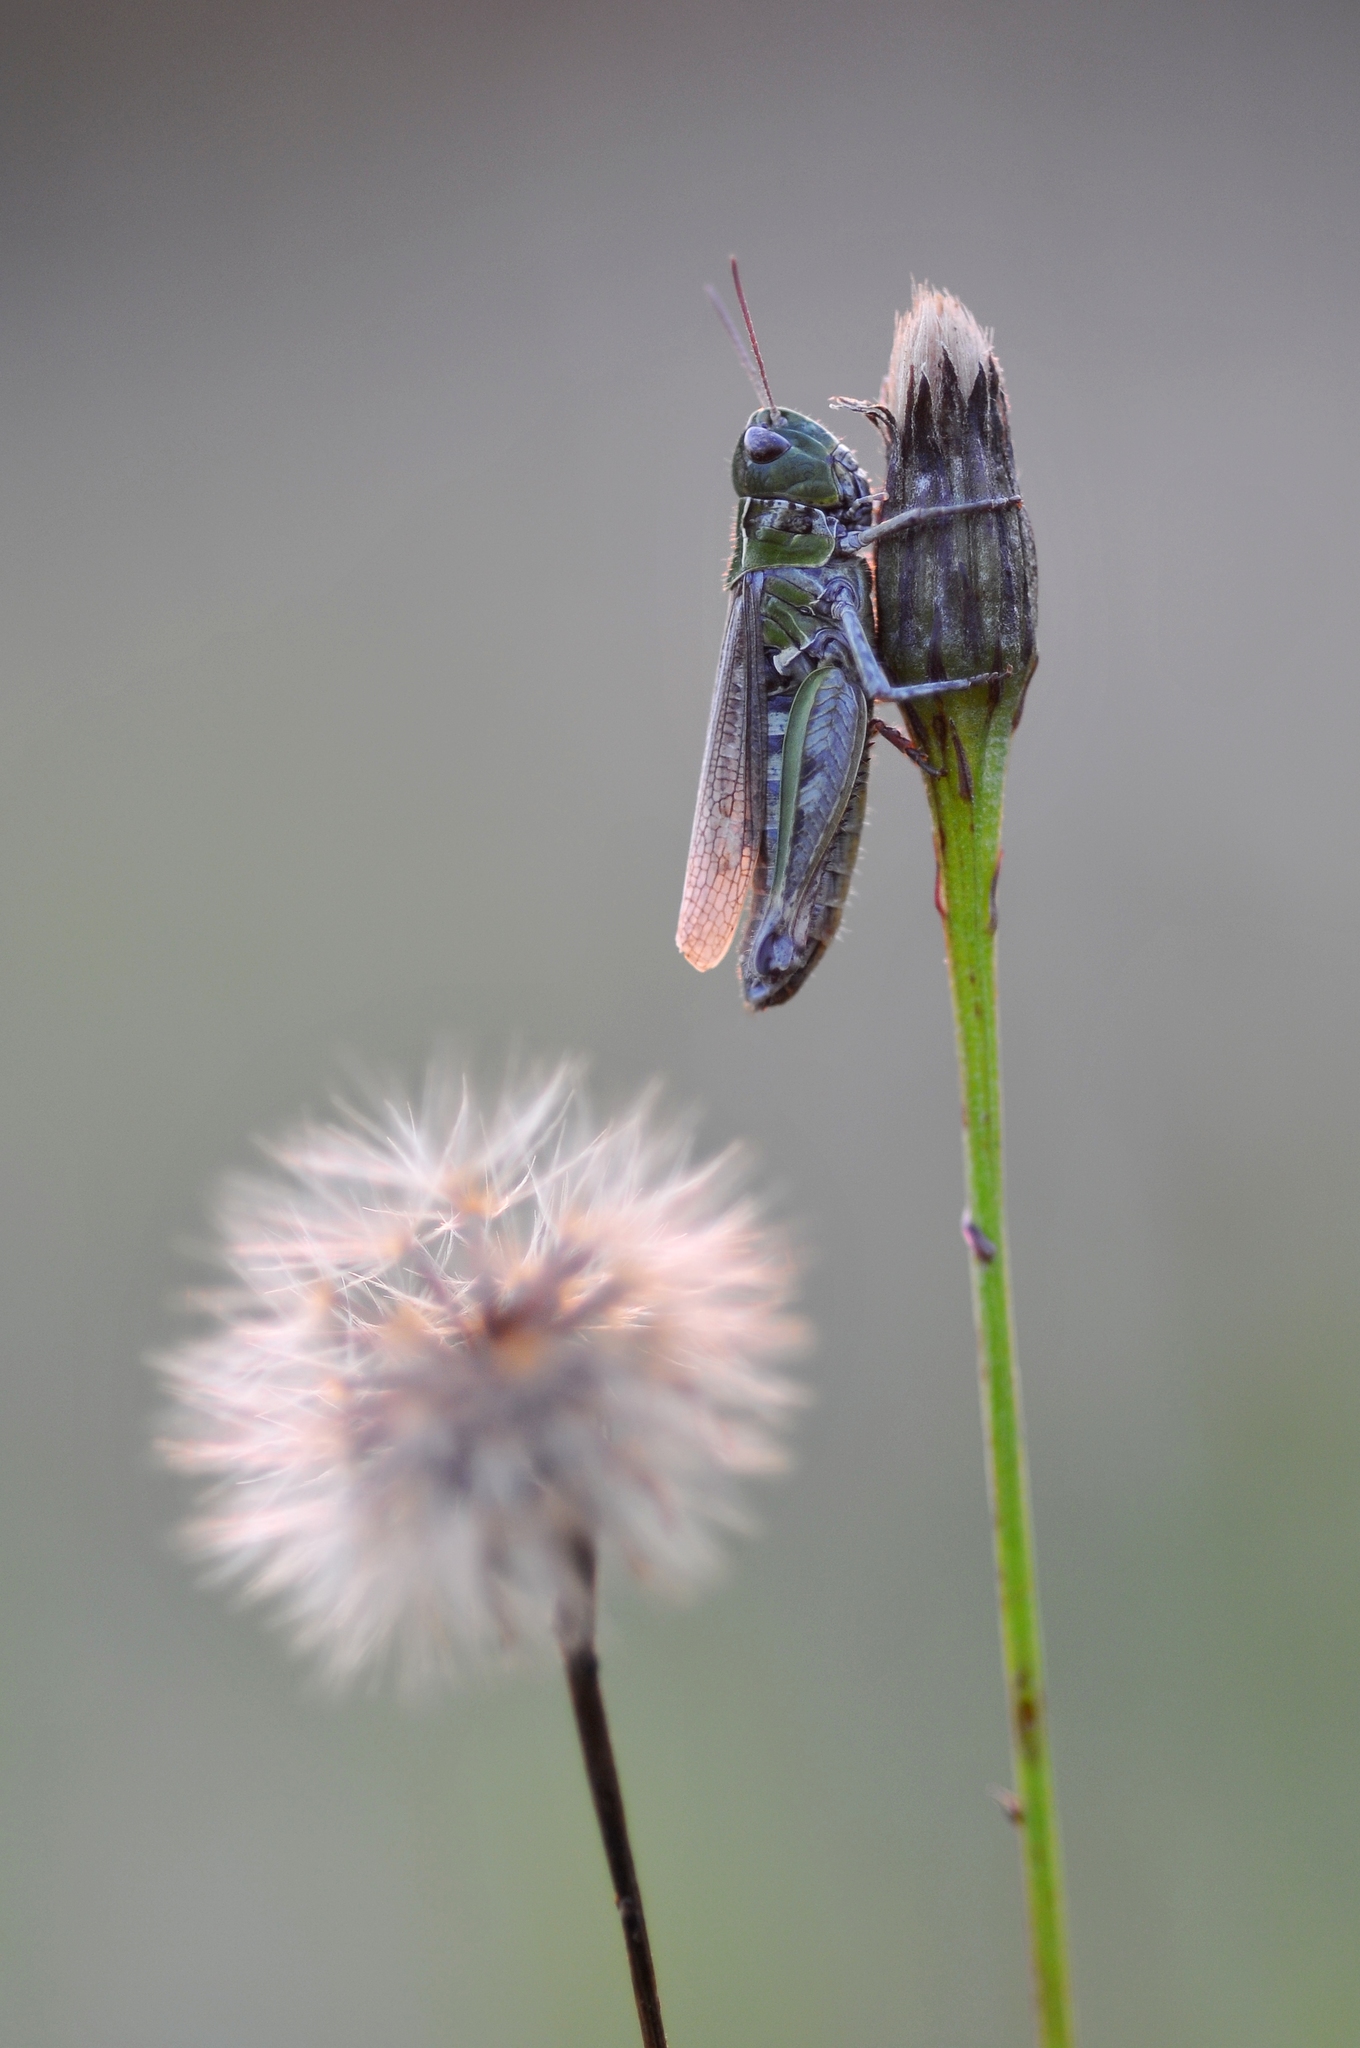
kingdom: Animalia
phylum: Arthropoda
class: Insecta
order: Orthoptera
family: Acrididae
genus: Myrmeleotettix
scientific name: Myrmeleotettix maculatus
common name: Mottled grasshopper
